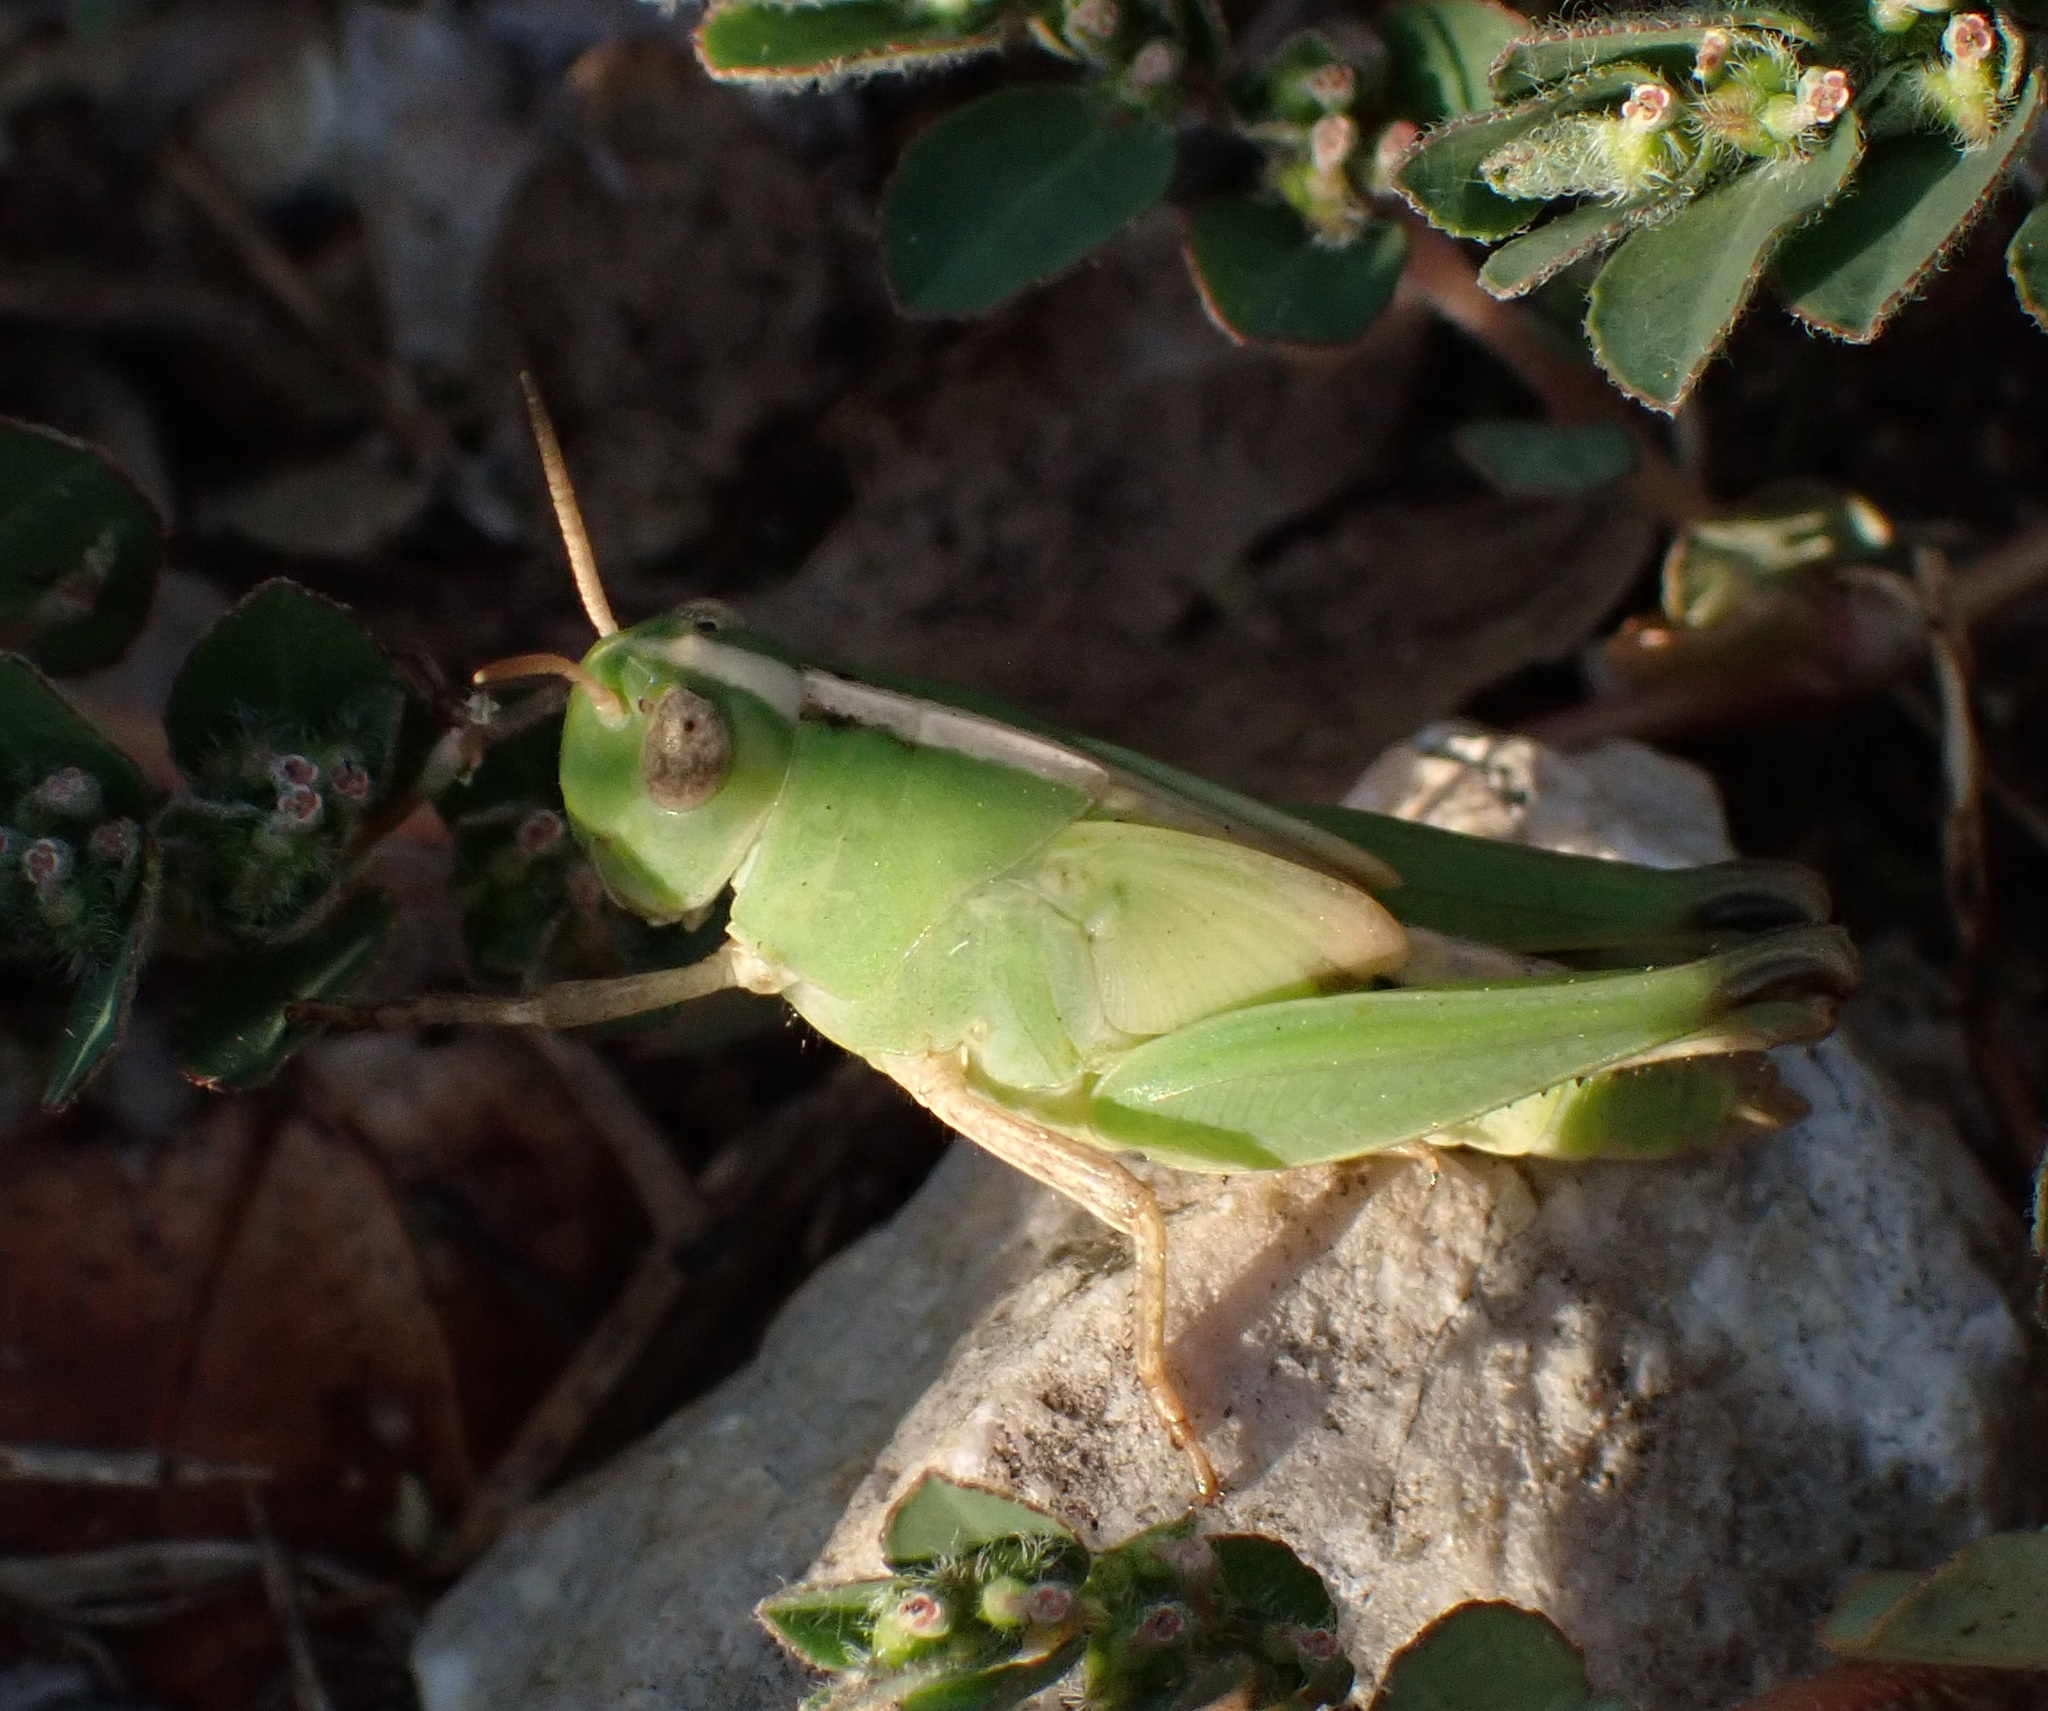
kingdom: Animalia
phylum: Arthropoda
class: Insecta
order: Orthoptera
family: Acrididae
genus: Aiolopus
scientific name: Aiolopus strepens
